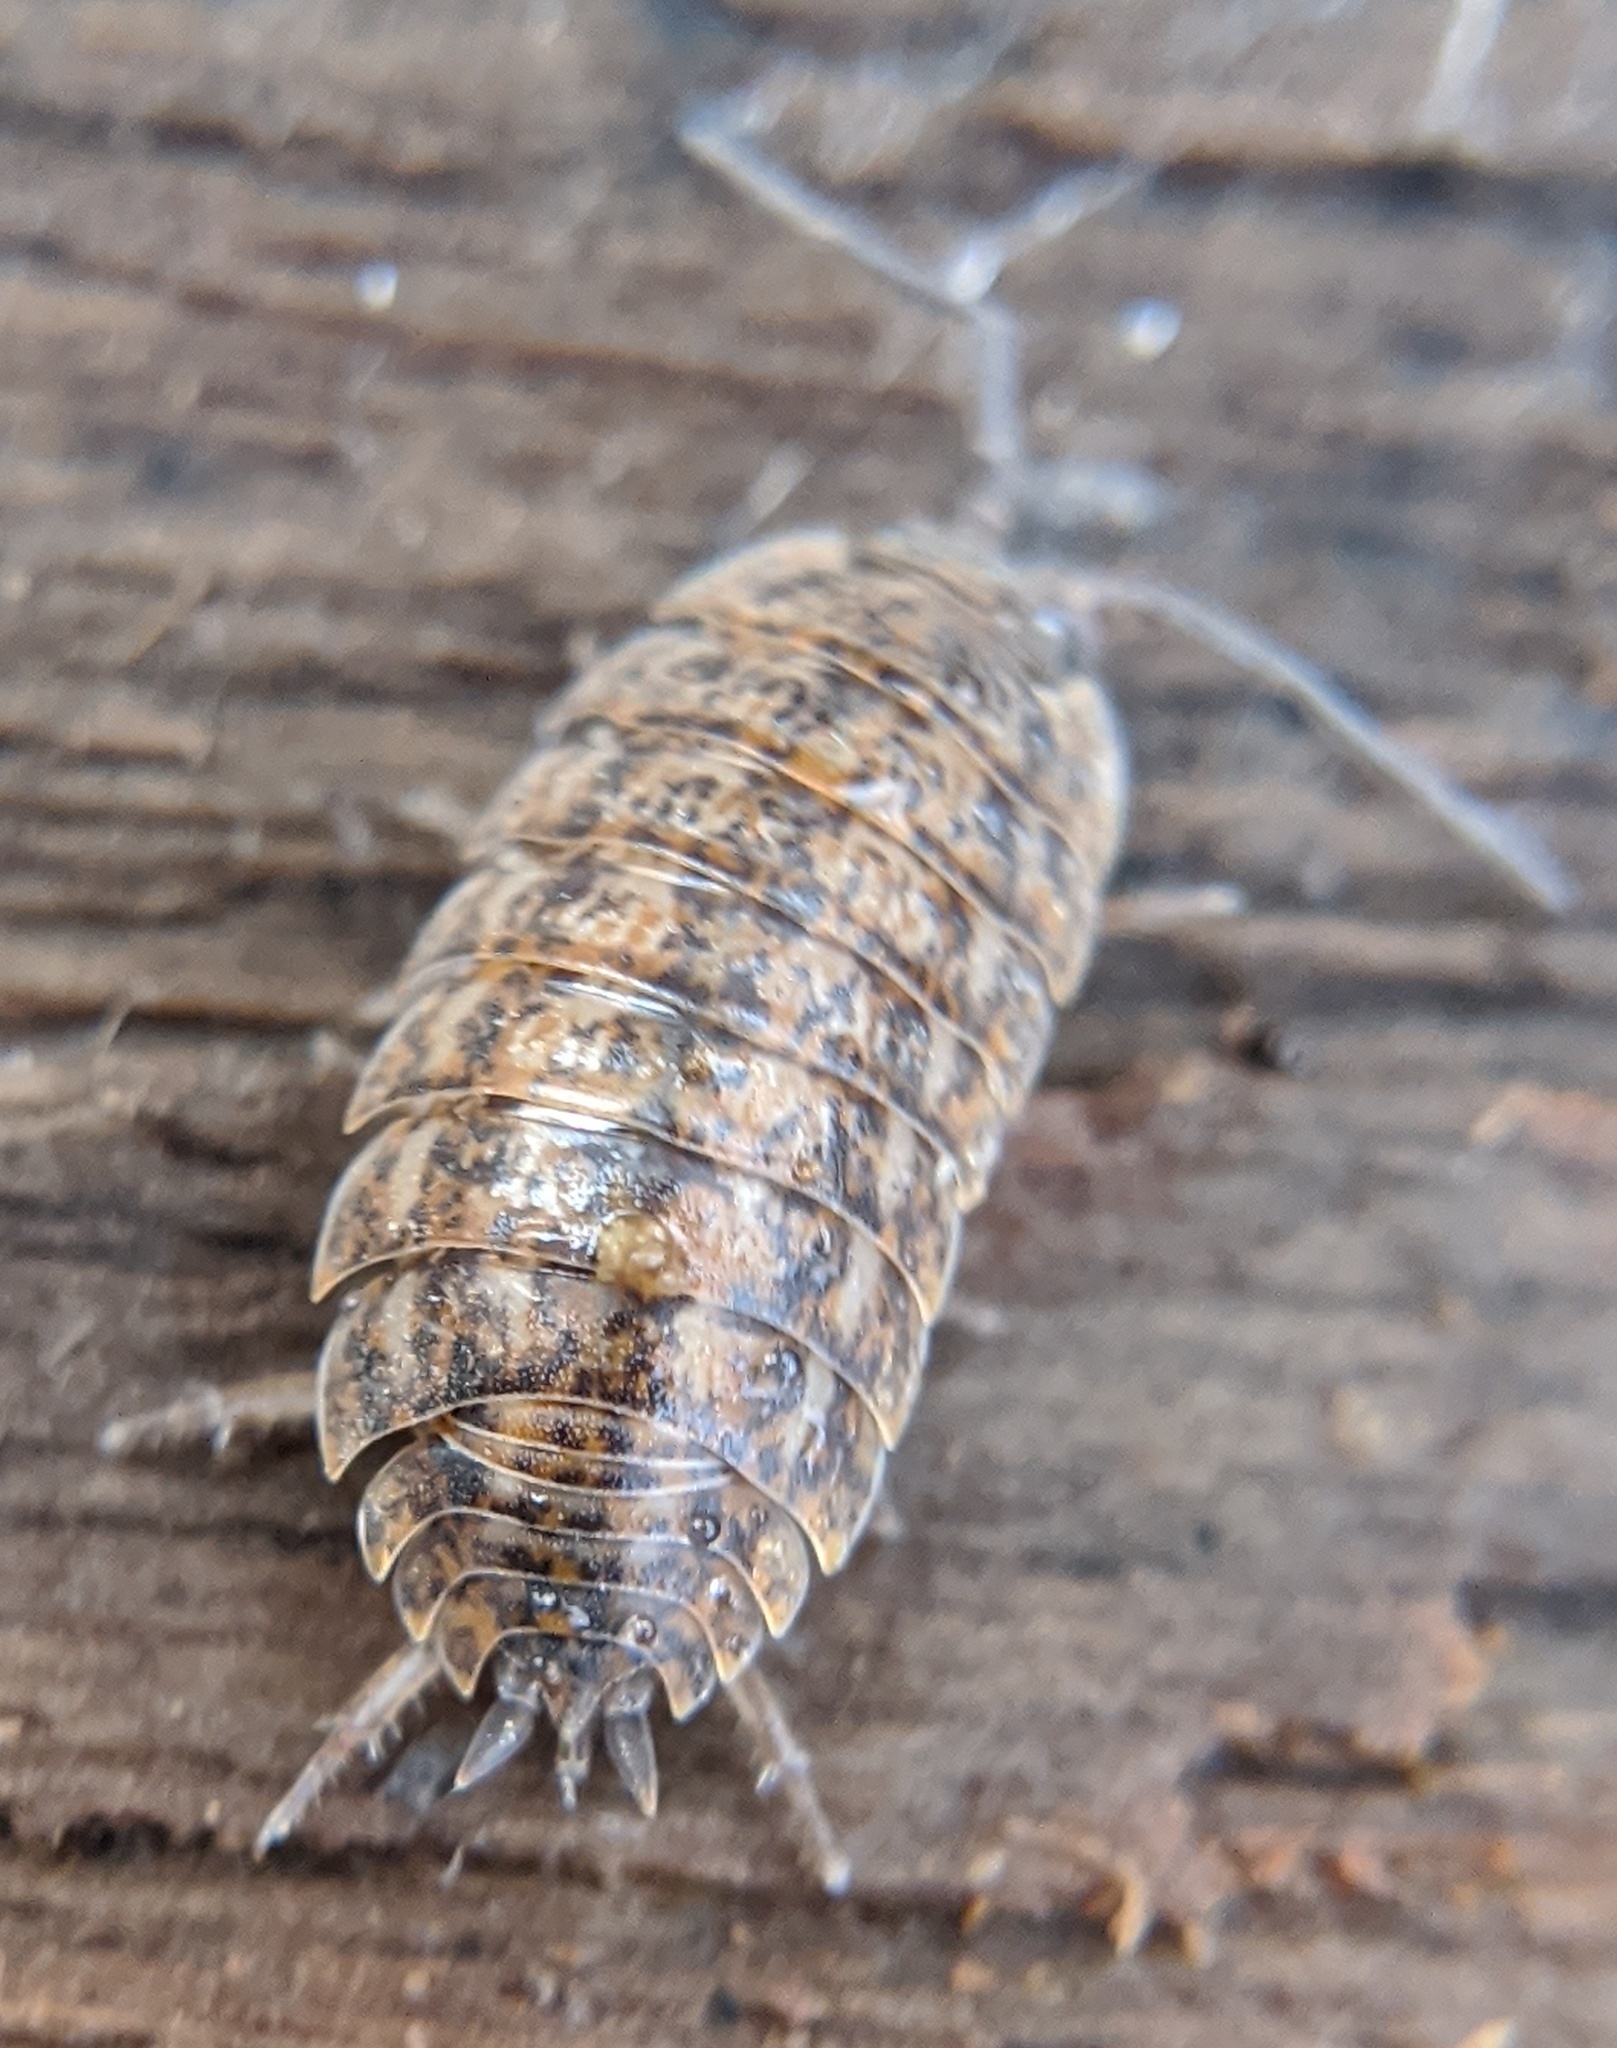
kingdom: Animalia
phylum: Arthropoda
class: Malacostraca
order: Isopoda
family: Trachelipodidae
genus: Trachelipus
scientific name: Trachelipus rathkii
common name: Isopod
